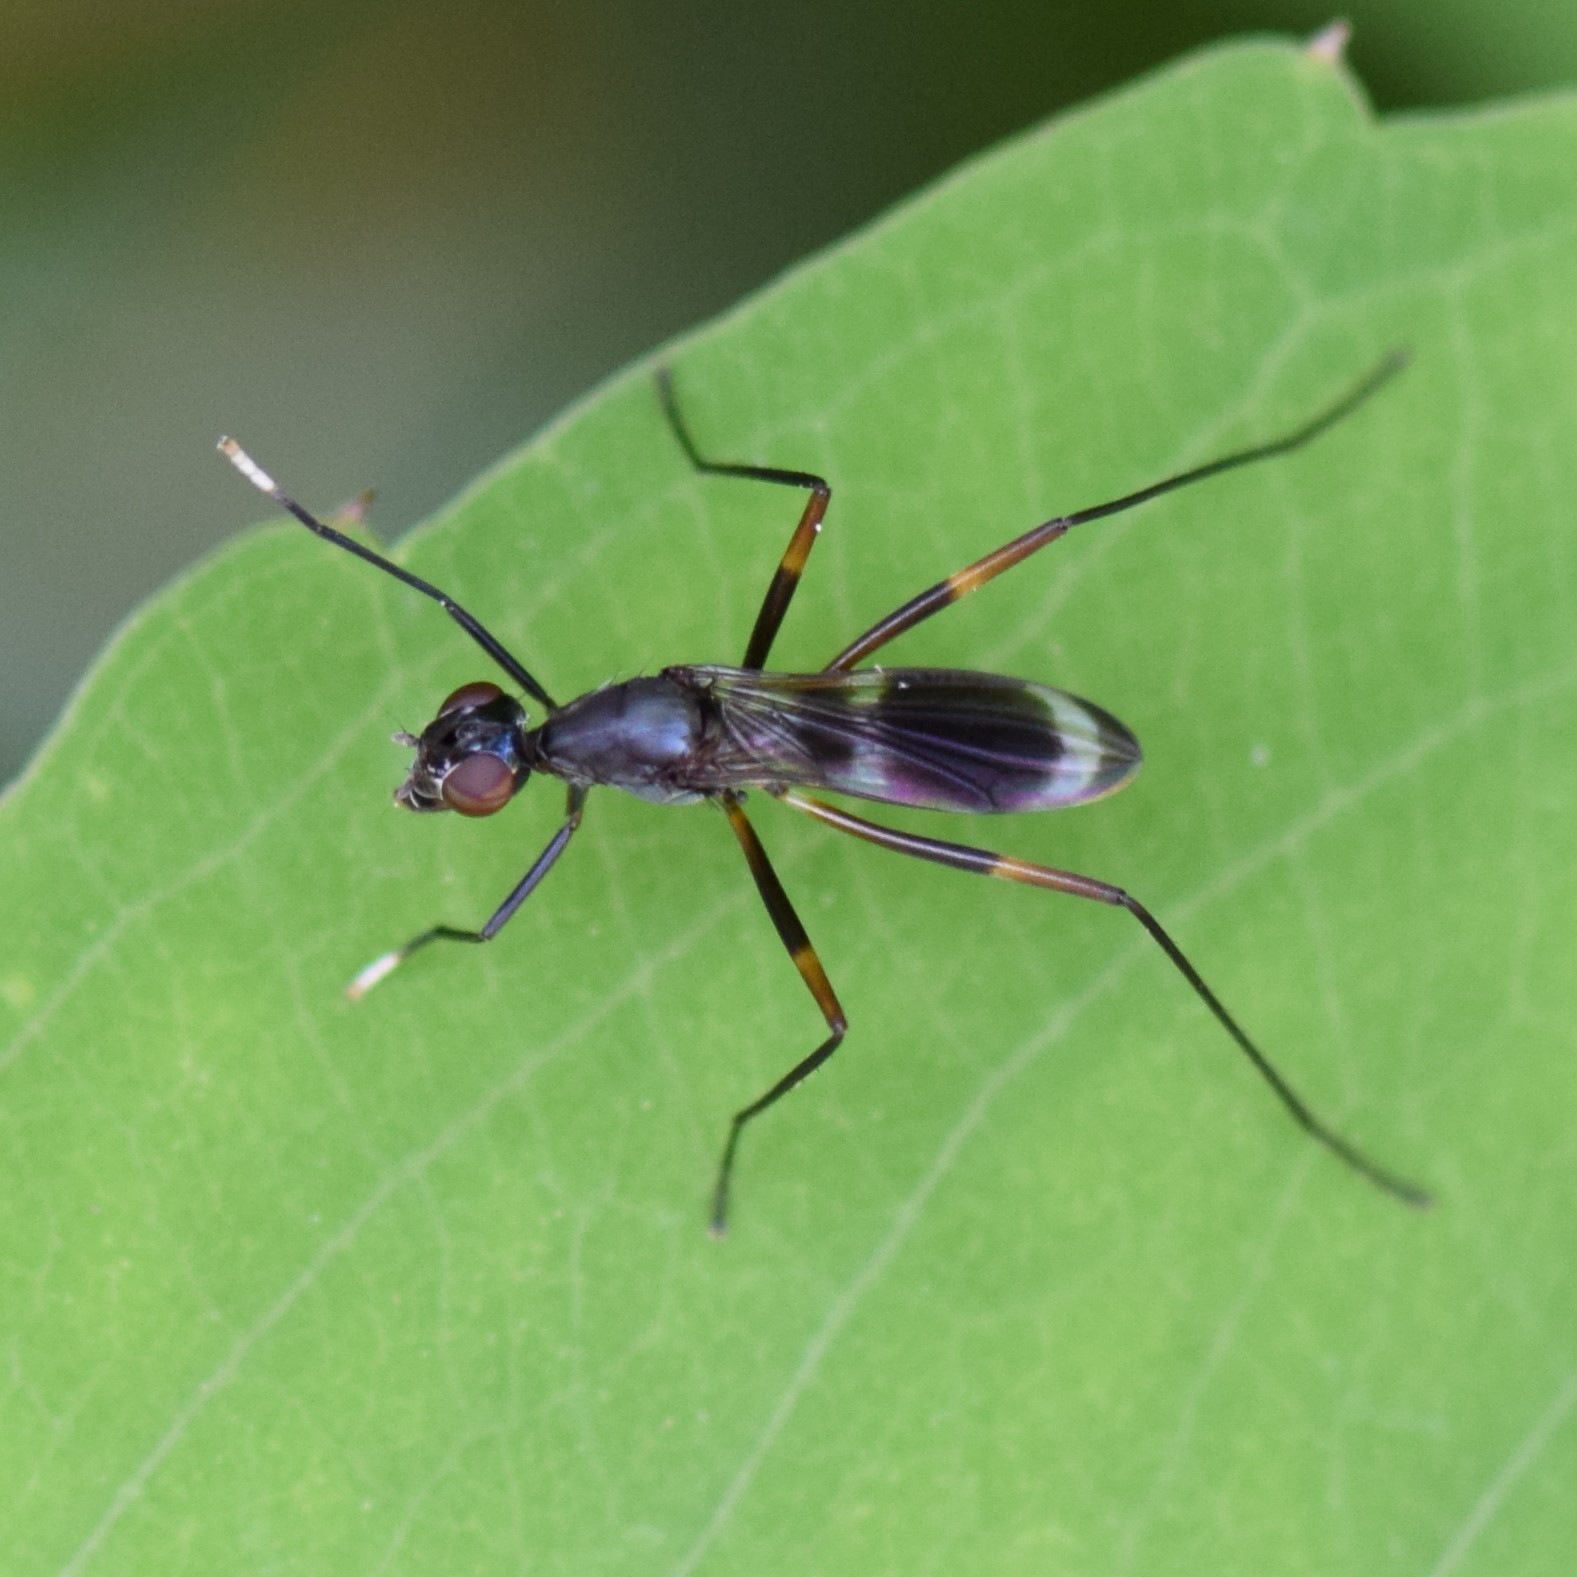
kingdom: Animalia
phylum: Arthropoda
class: Insecta
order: Diptera
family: Micropezidae
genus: Rainieria
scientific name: Rainieria antennaepes
